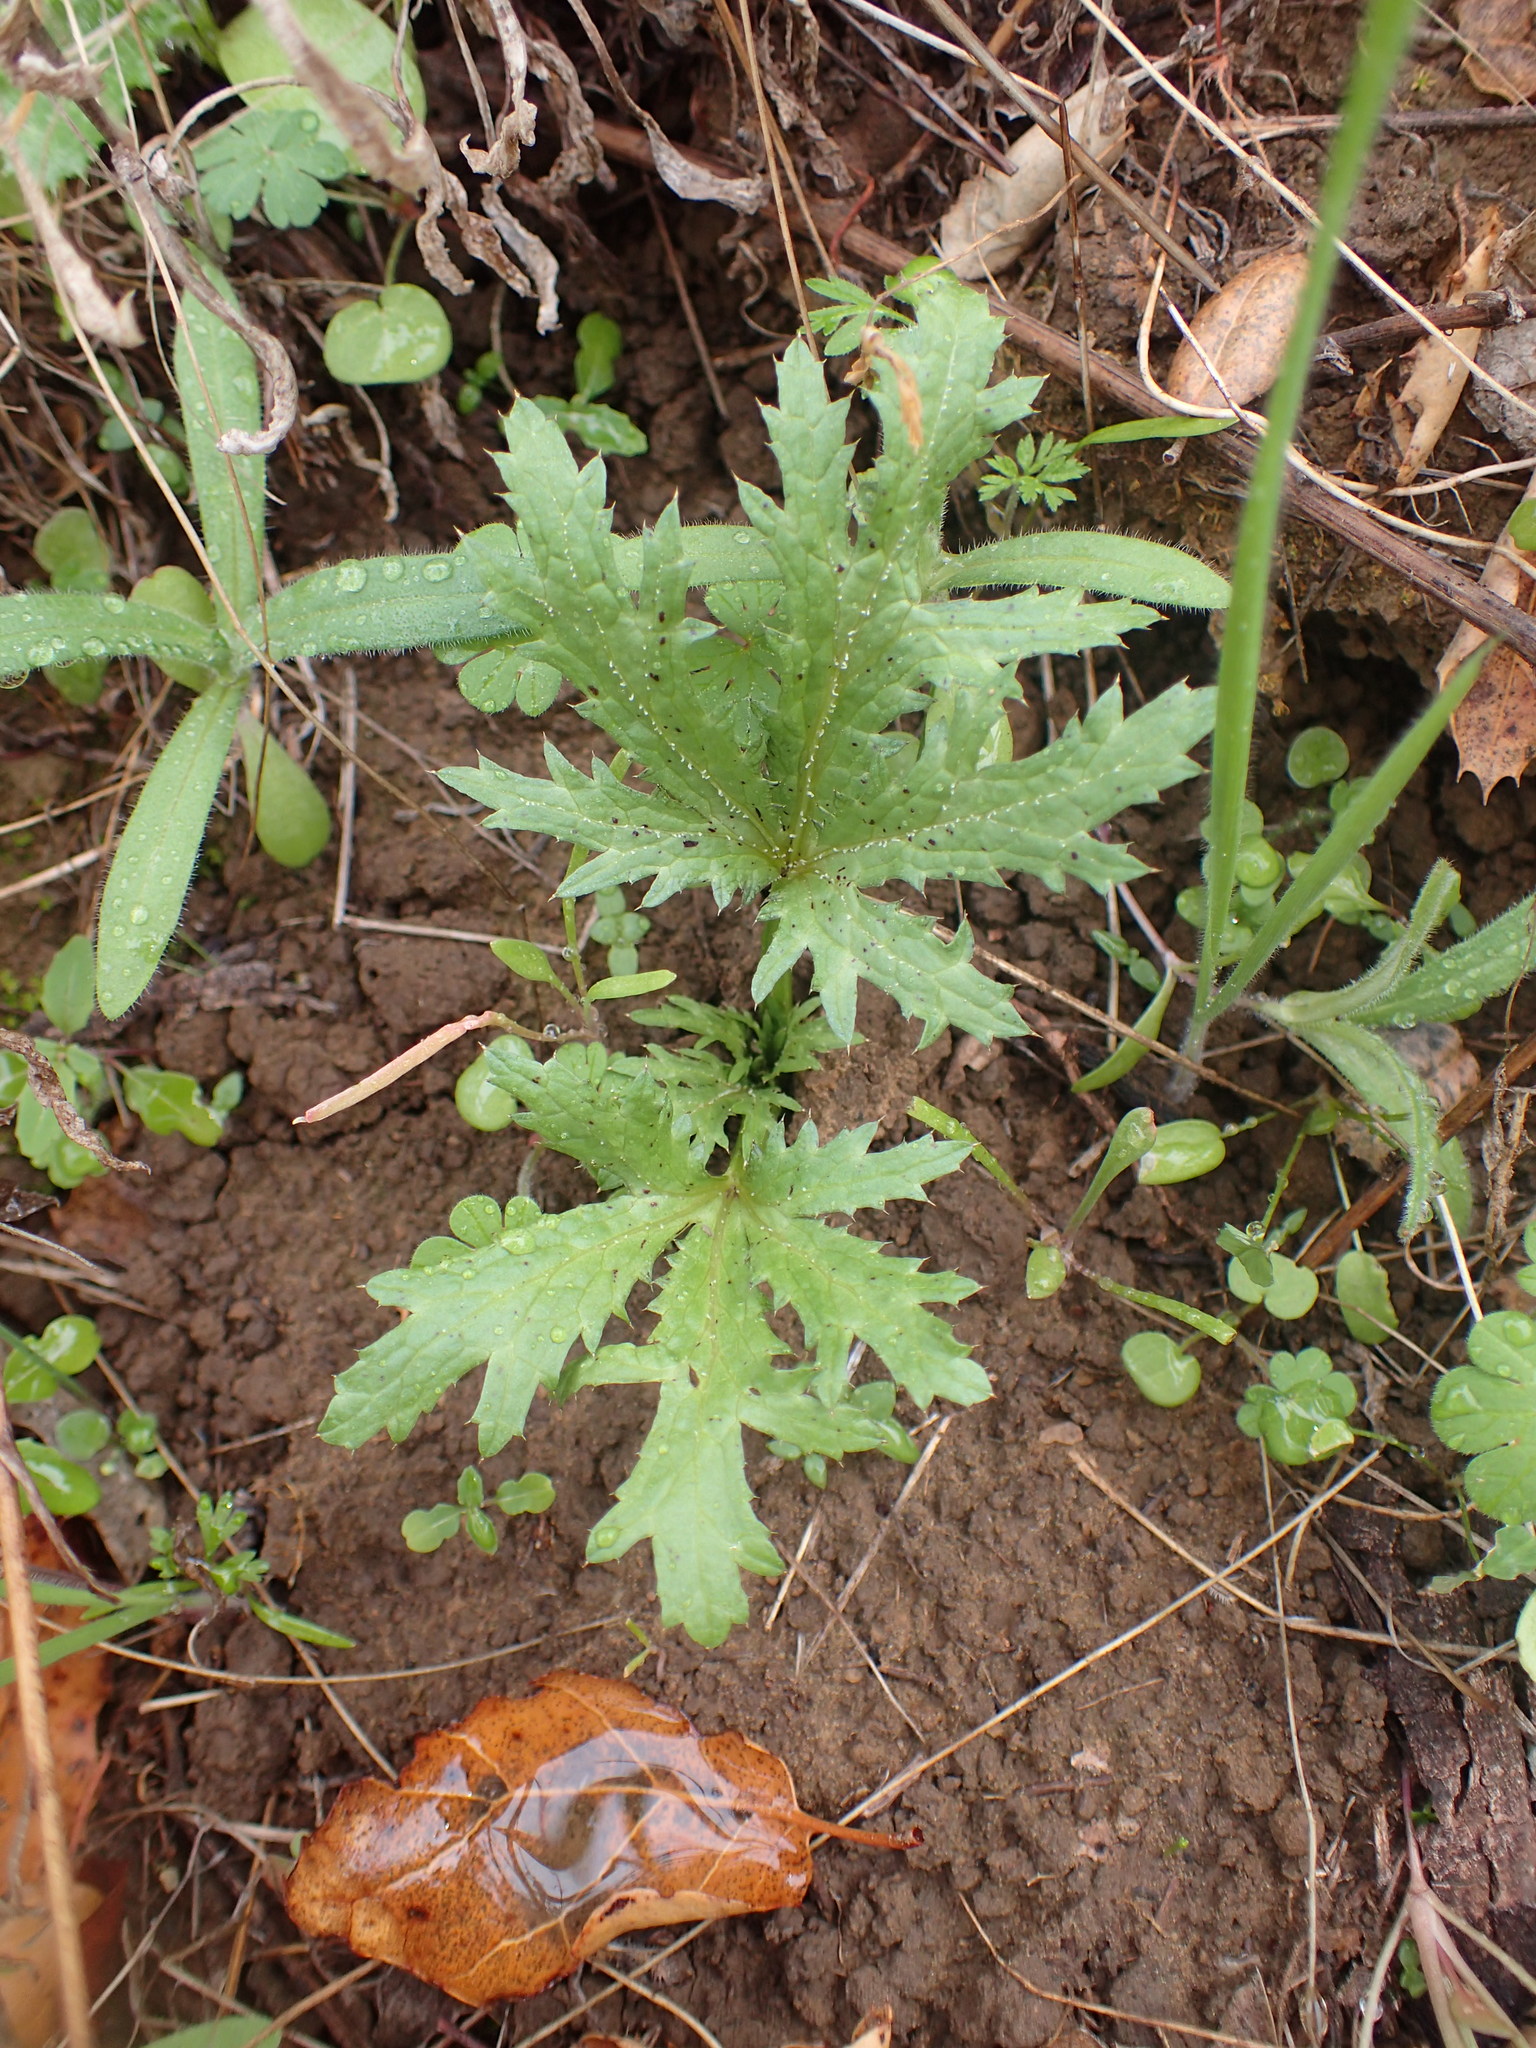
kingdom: Plantae
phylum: Tracheophyta
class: Magnoliopsida
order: Apiales
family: Apiaceae
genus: Sanicula
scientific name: Sanicula arguta
